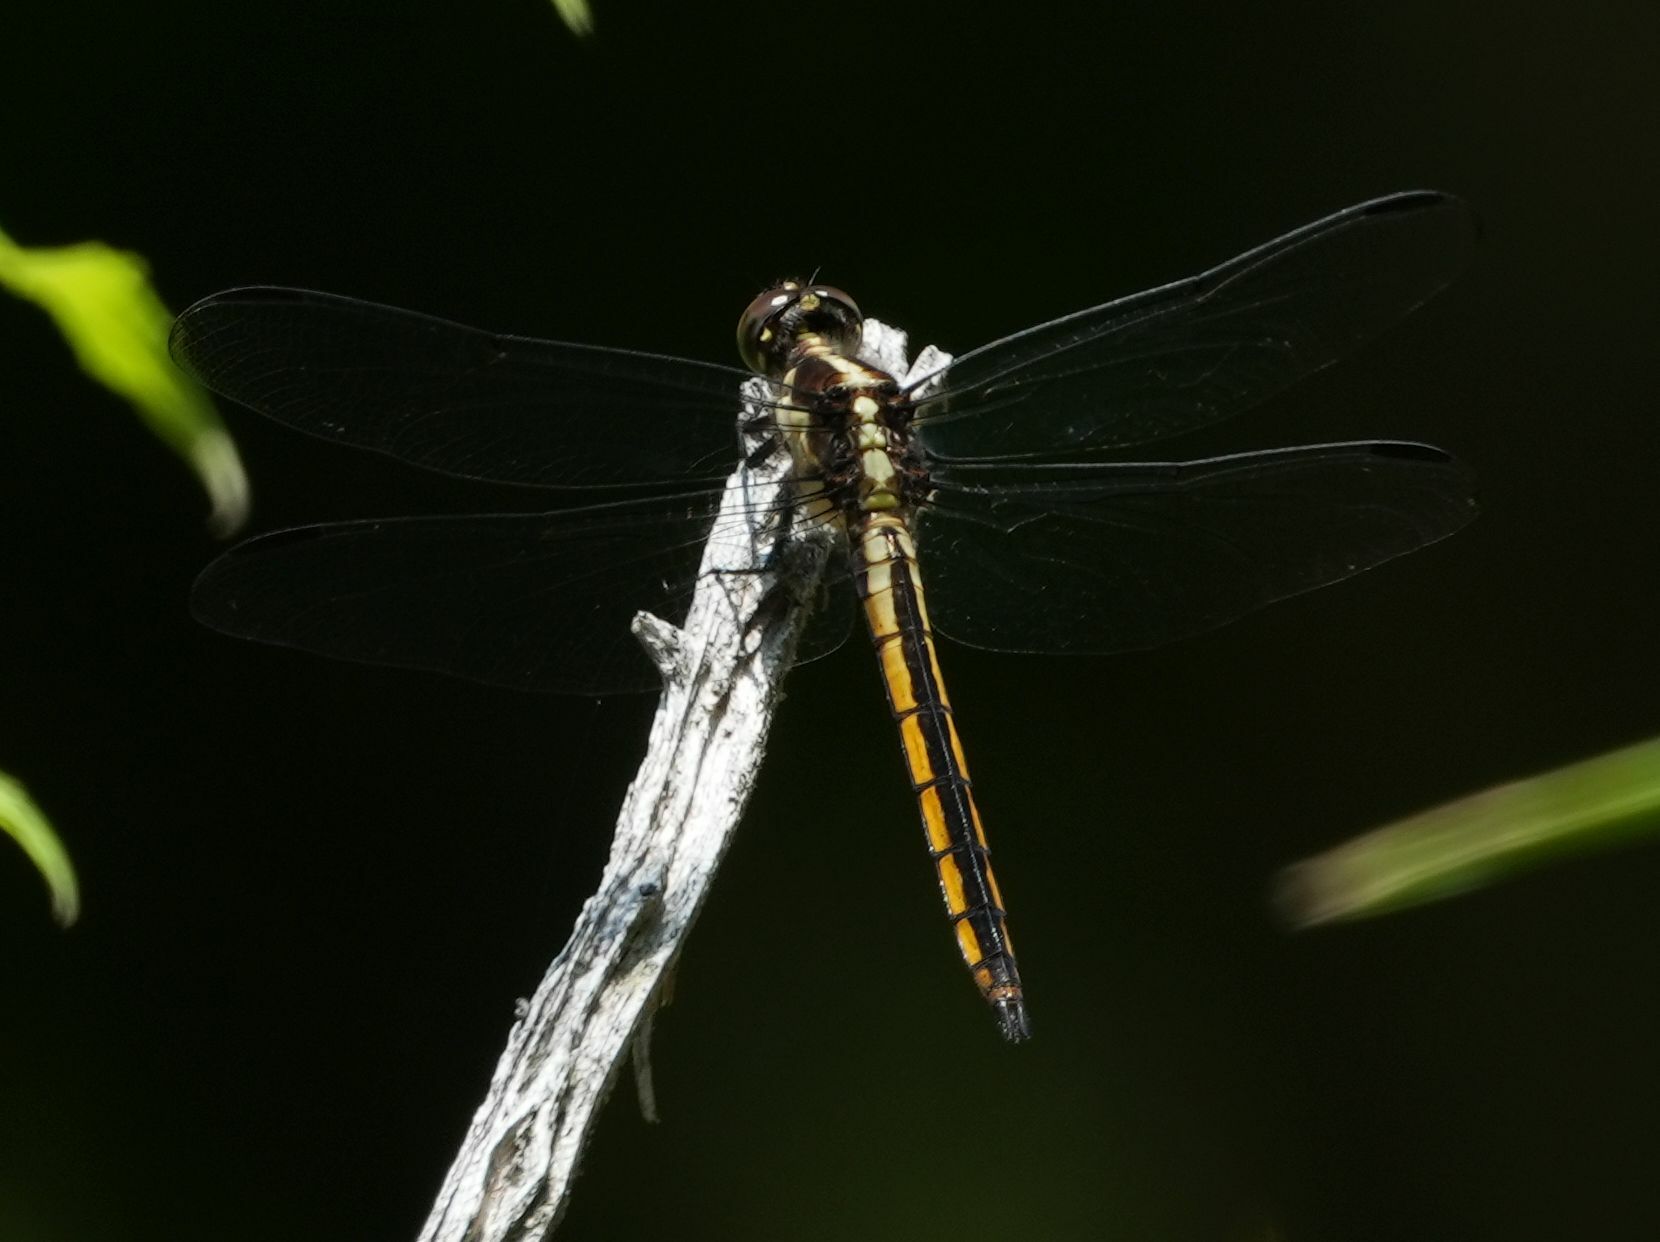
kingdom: Animalia
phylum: Arthropoda
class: Insecta
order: Odonata
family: Libellulidae
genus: Libellula
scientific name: Libellula incesta
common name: Slaty skimmer
